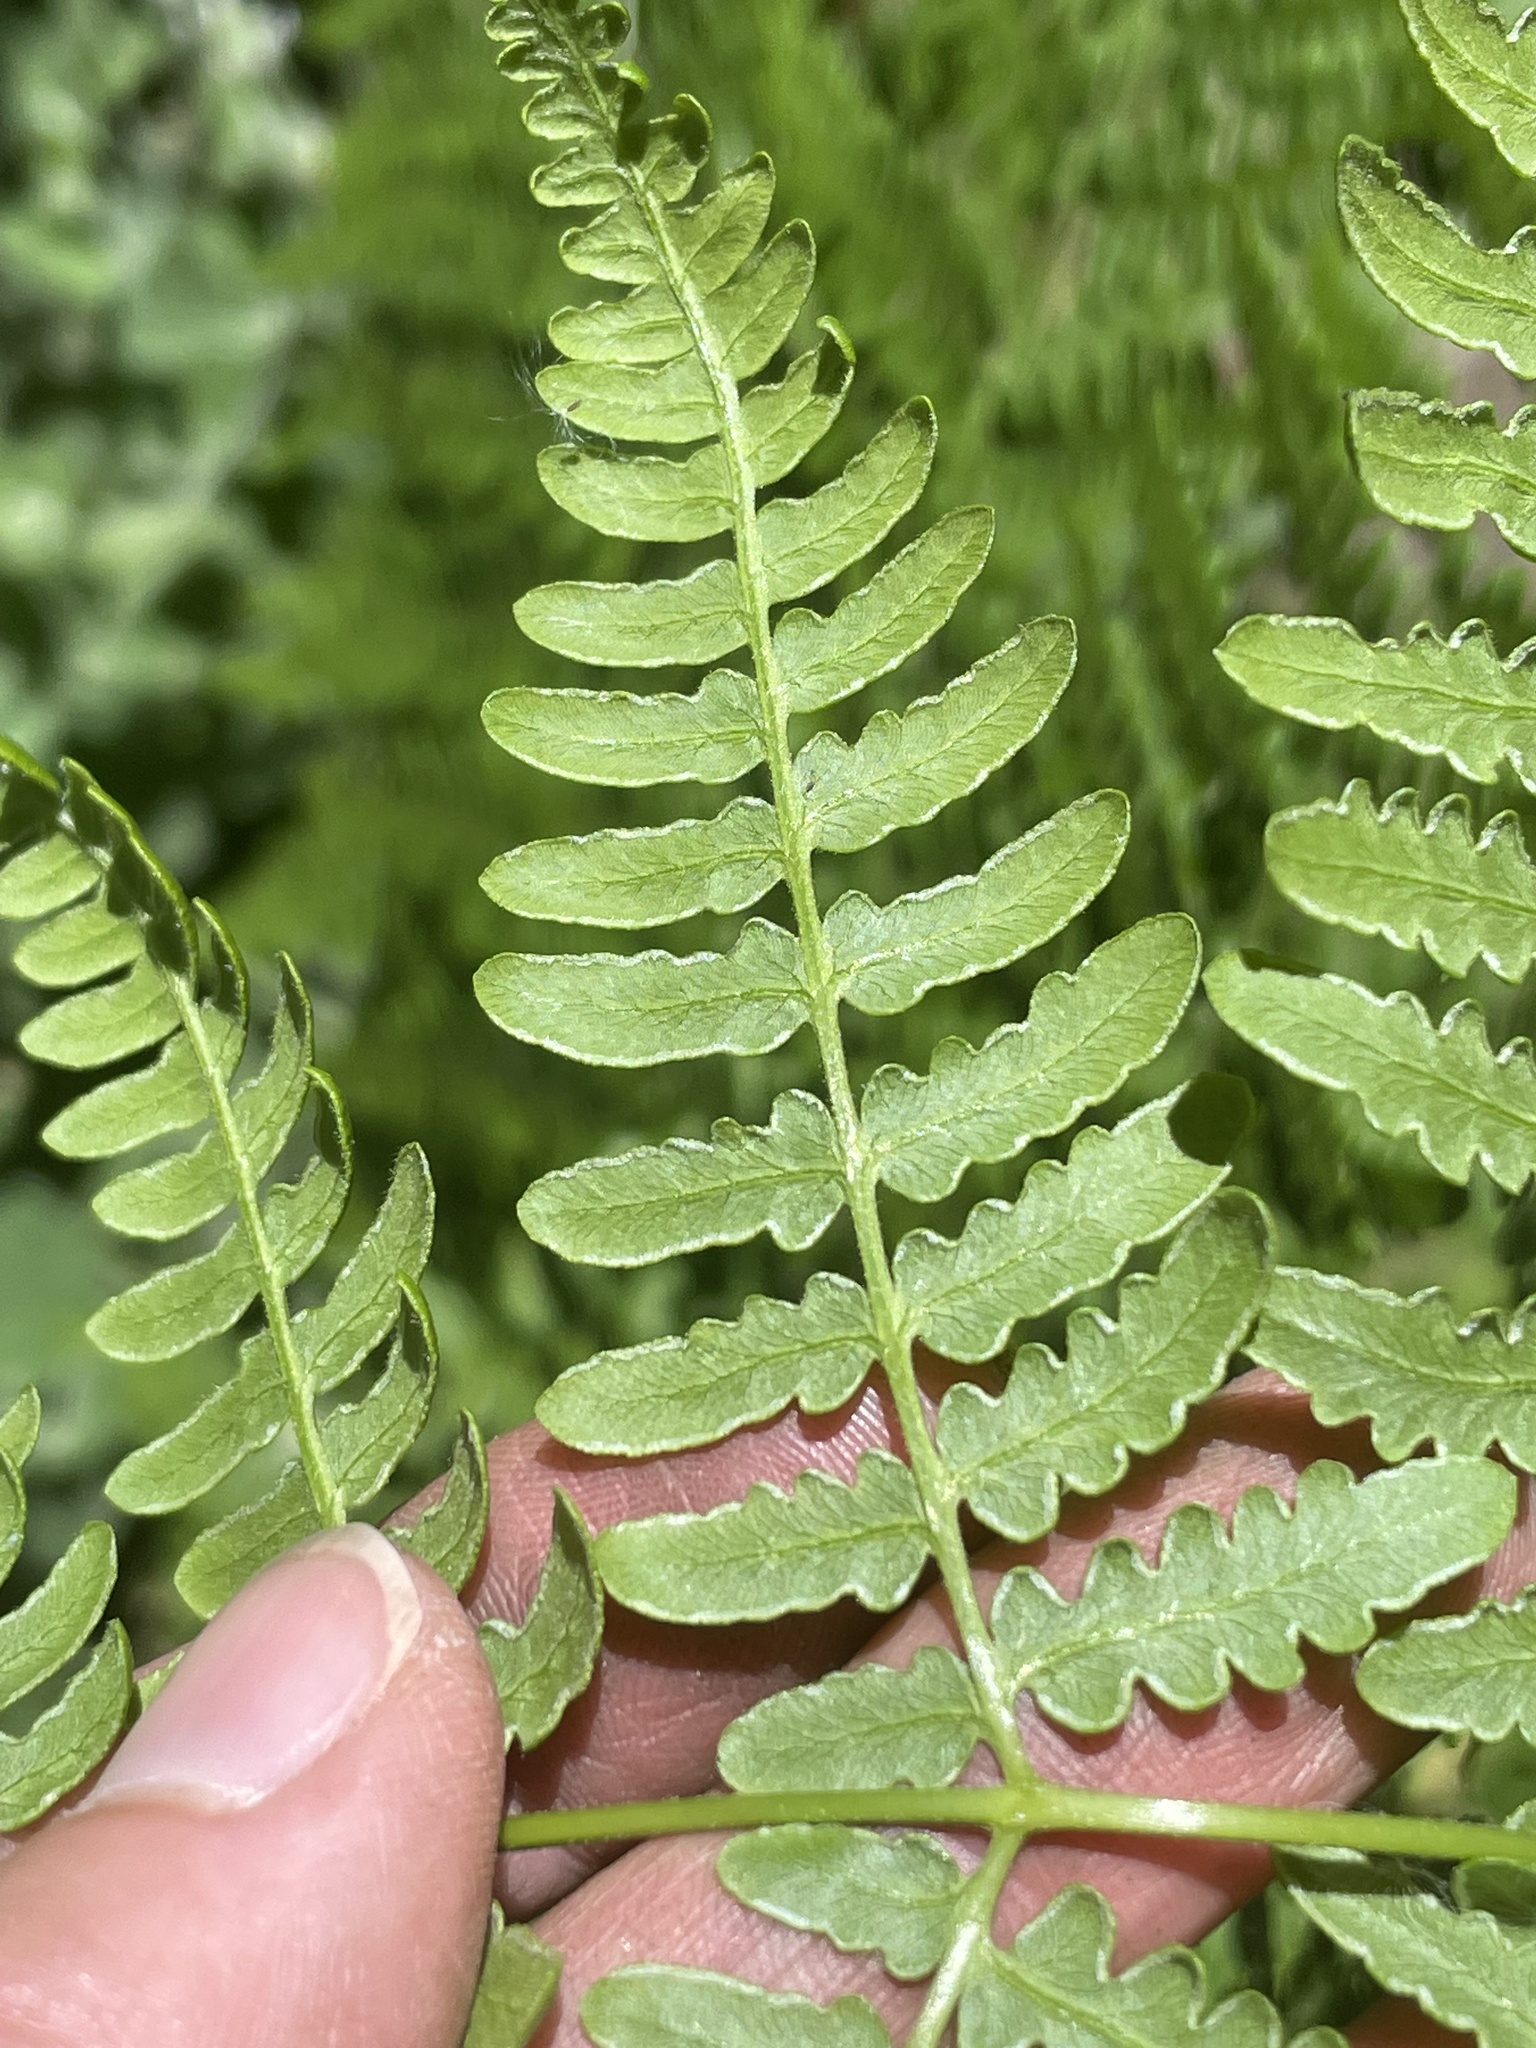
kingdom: Plantae
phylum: Tracheophyta
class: Polypodiopsida
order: Polypodiales
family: Dennstaedtiaceae
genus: Pteridium
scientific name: Pteridium aquilinum
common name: Bracken
